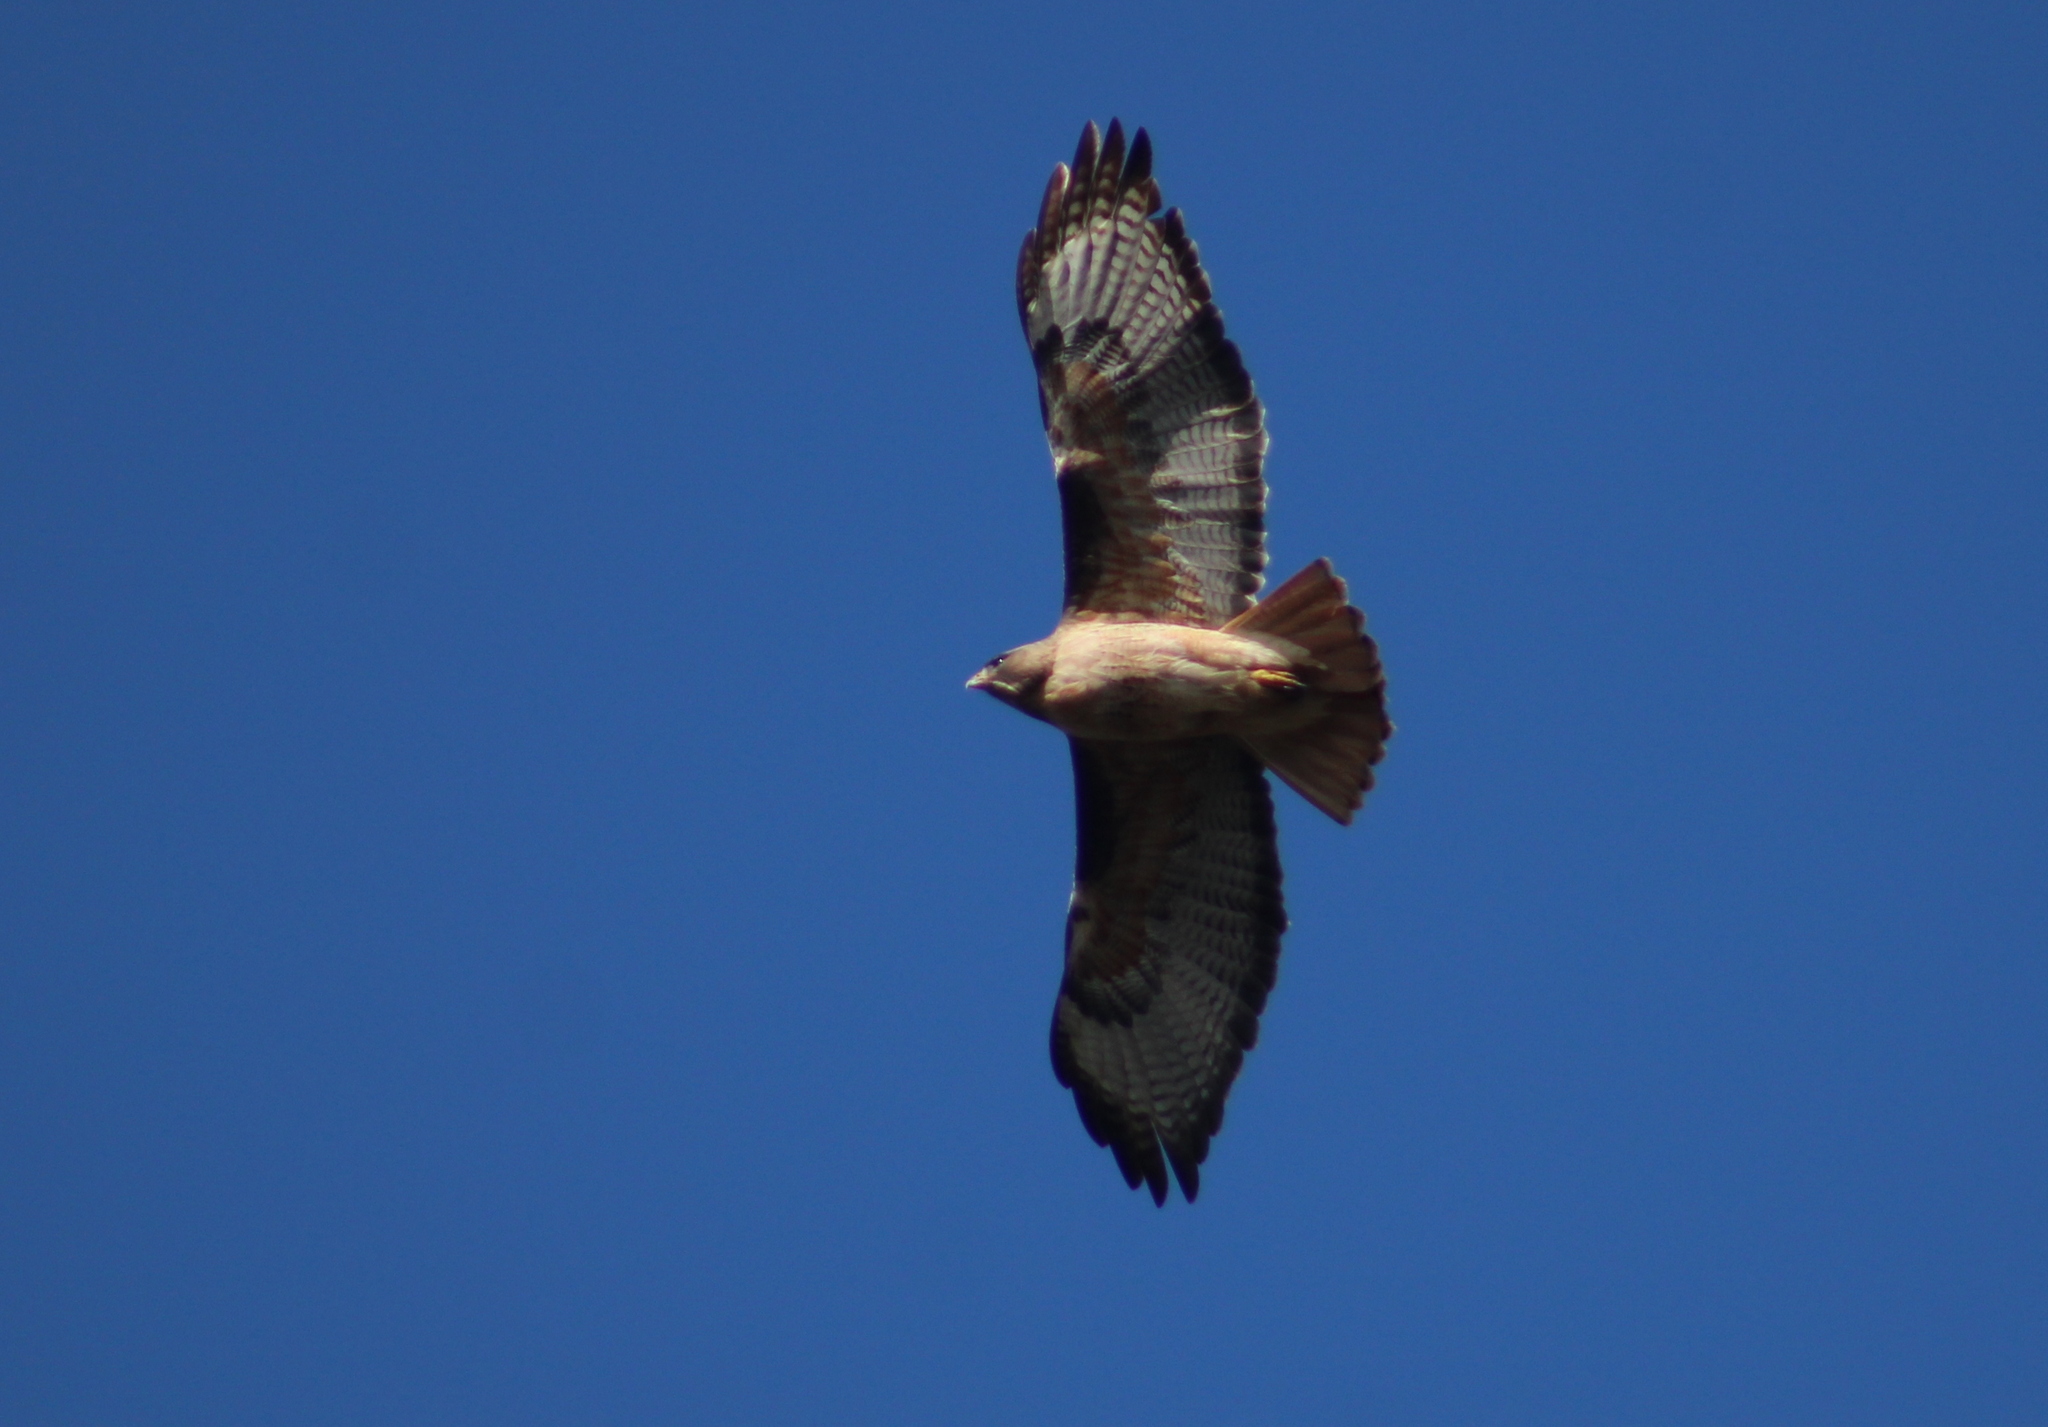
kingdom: Animalia
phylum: Chordata
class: Aves
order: Accipitriformes
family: Accipitridae
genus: Buteo
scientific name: Buteo jamaicensis
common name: Red-tailed hawk
